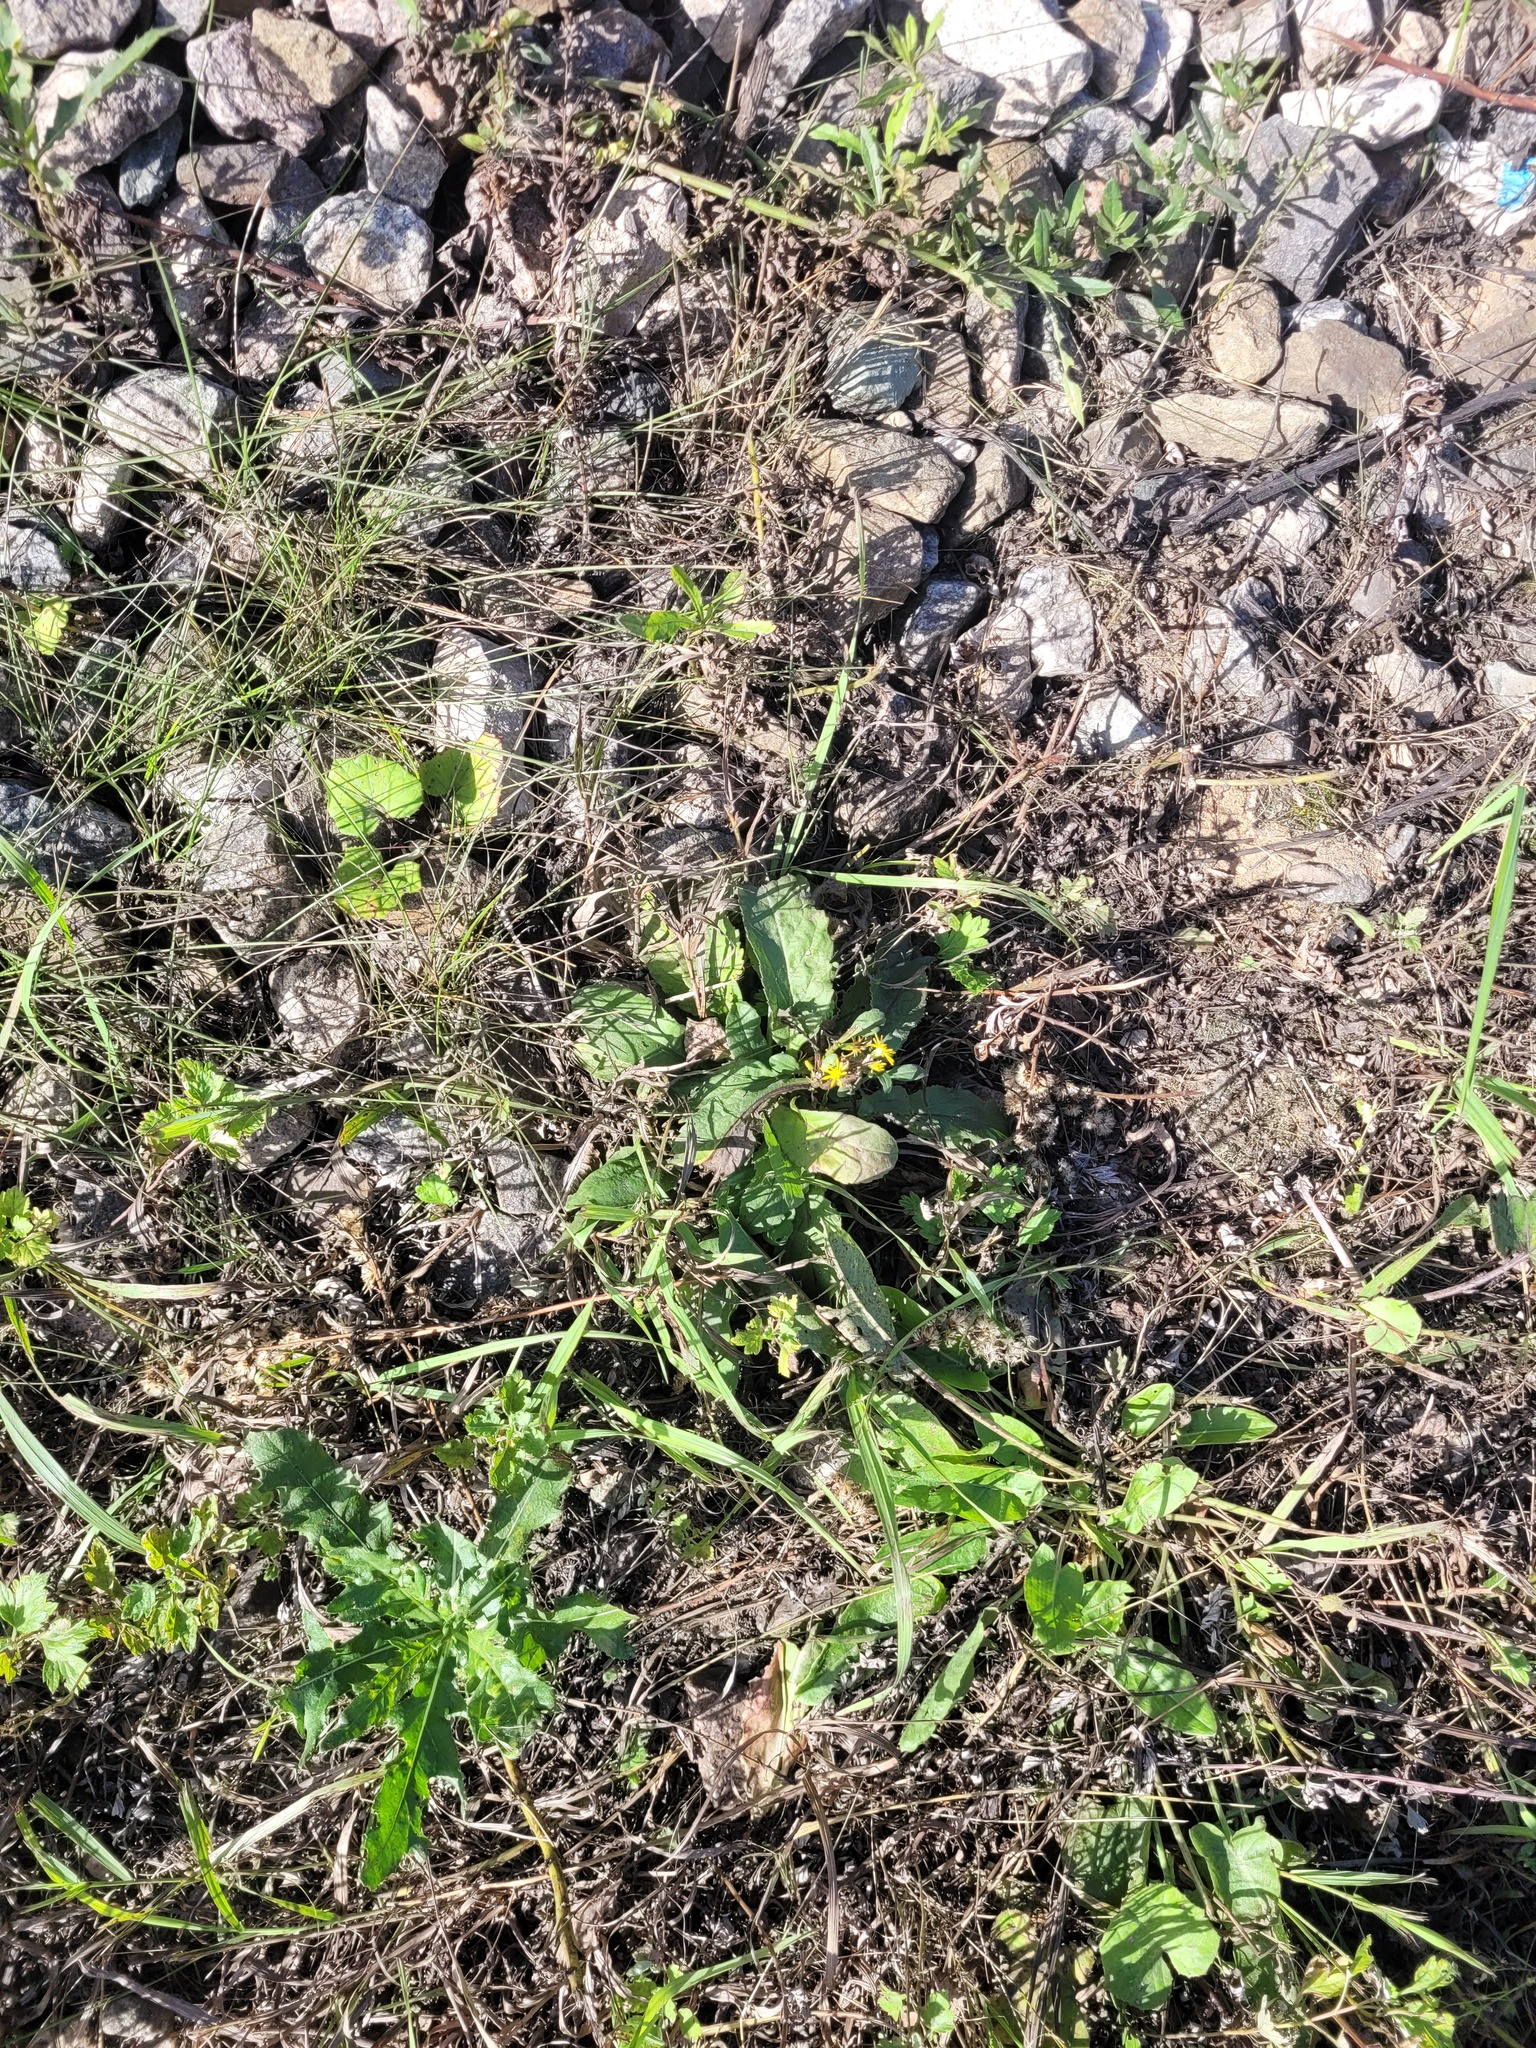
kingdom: Plantae
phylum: Tracheophyta
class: Magnoliopsida
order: Asterales
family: Asteraceae
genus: Solidago
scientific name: Solidago virgaurea
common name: Goldenrod
